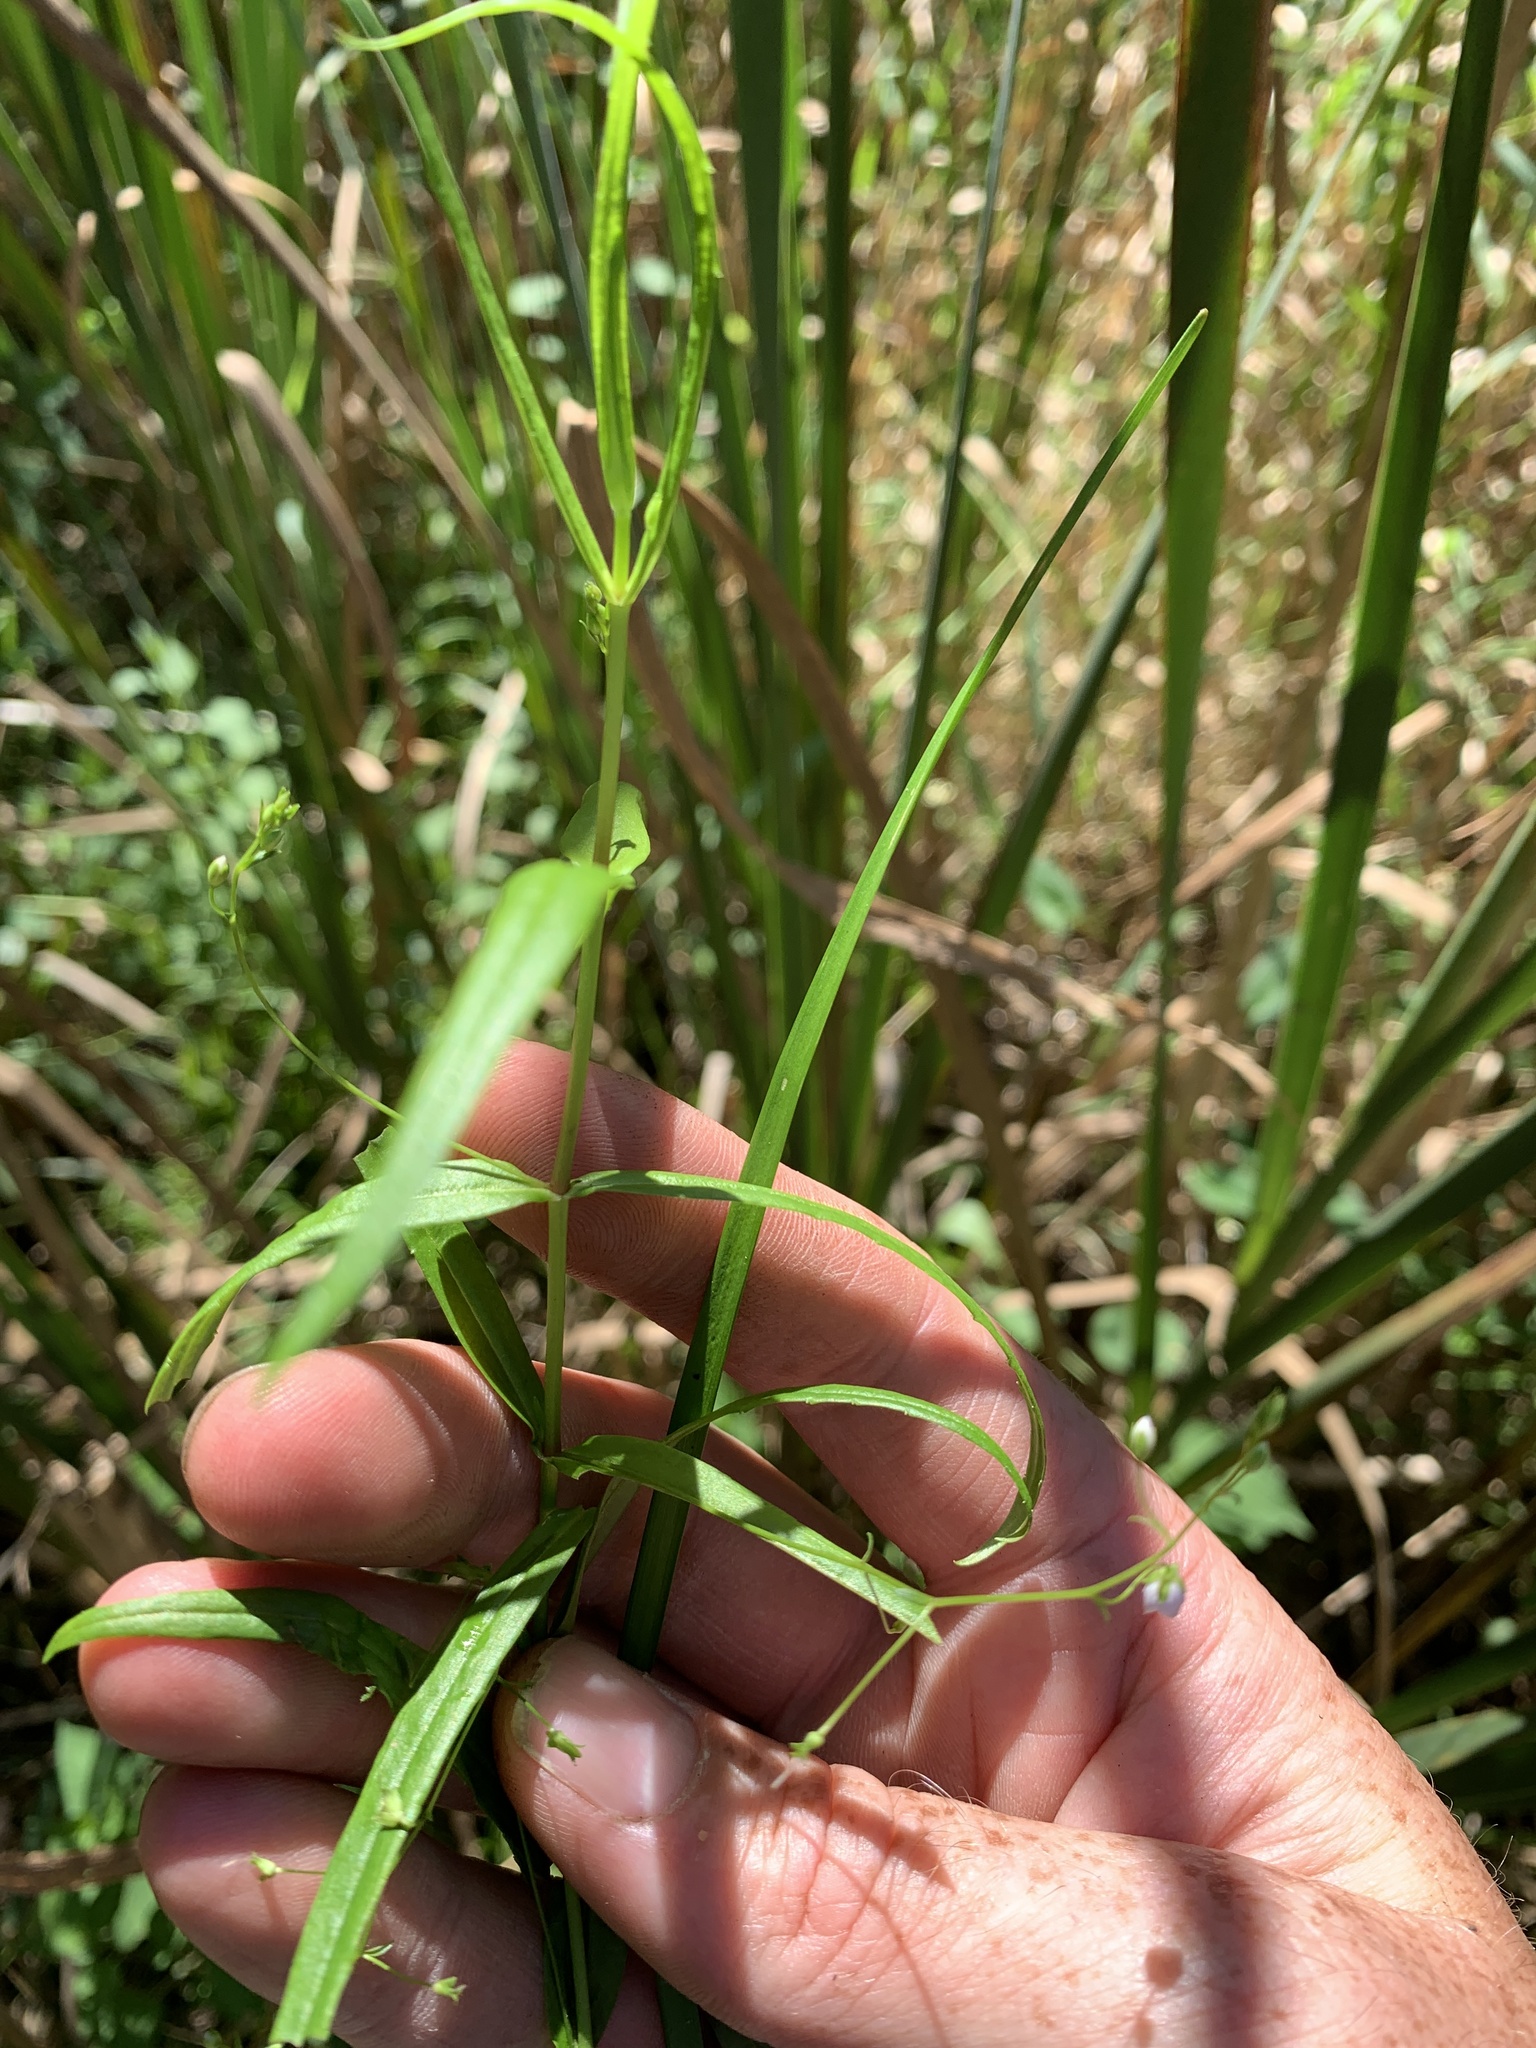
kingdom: Plantae
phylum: Tracheophyta
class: Magnoliopsida
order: Lamiales
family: Plantaginaceae
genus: Veronica
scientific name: Veronica scutellata
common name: Marsh speedwell
